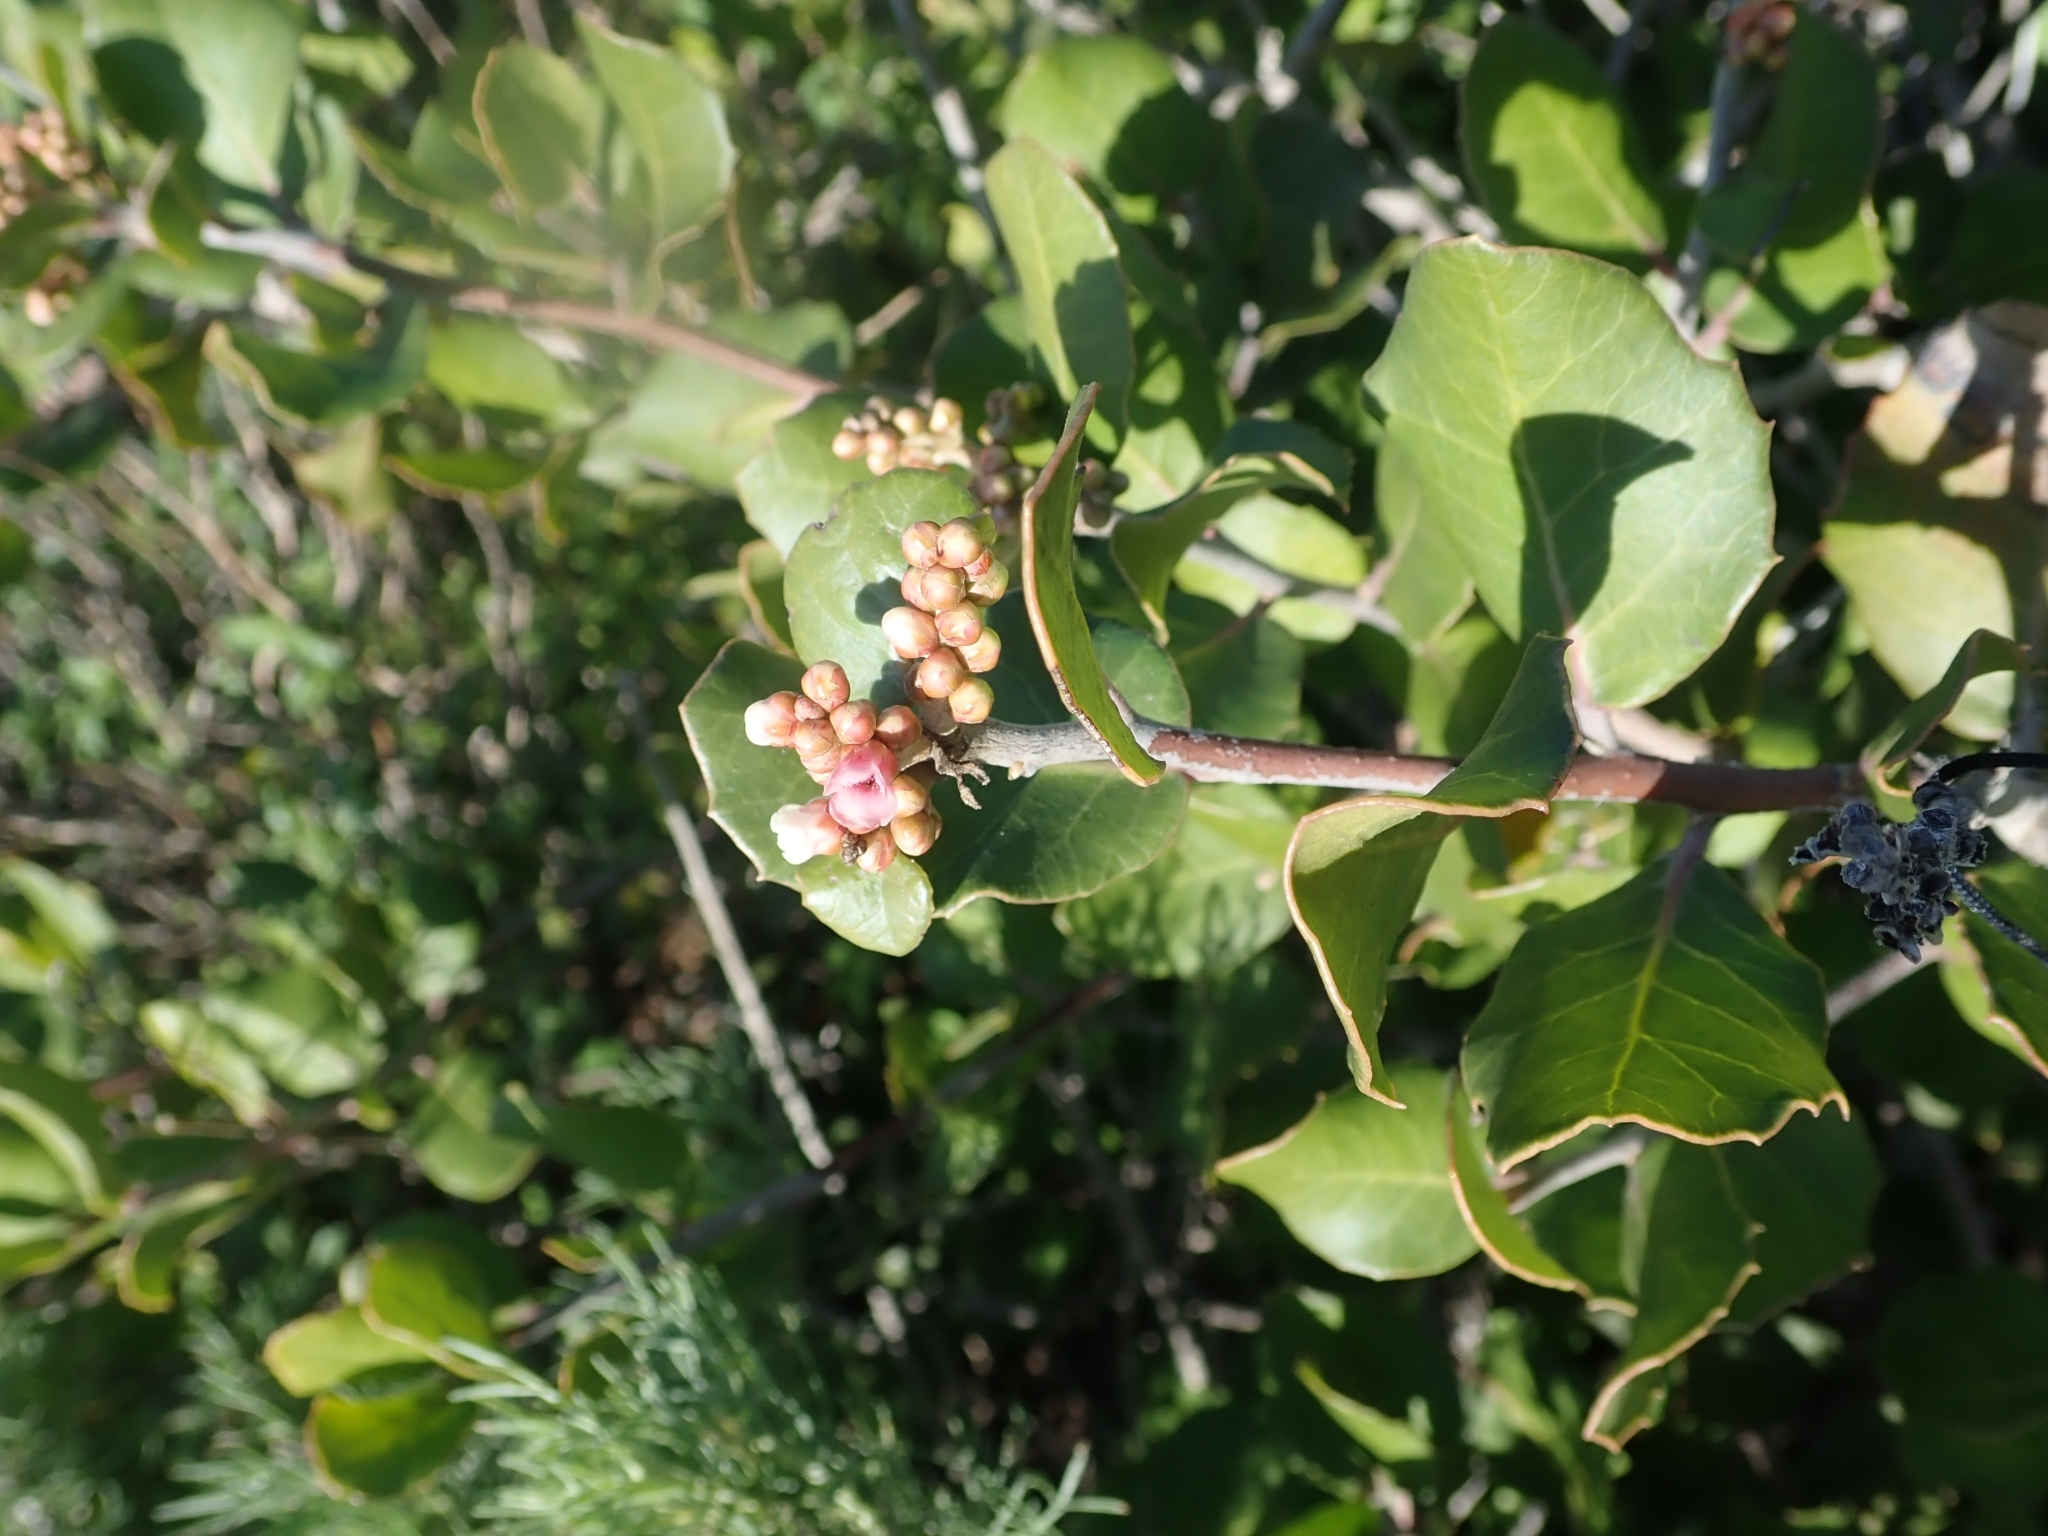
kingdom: Plantae
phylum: Tracheophyta
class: Magnoliopsida
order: Sapindales
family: Anacardiaceae
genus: Rhus
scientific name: Rhus integrifolia
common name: Lemonade sumac
